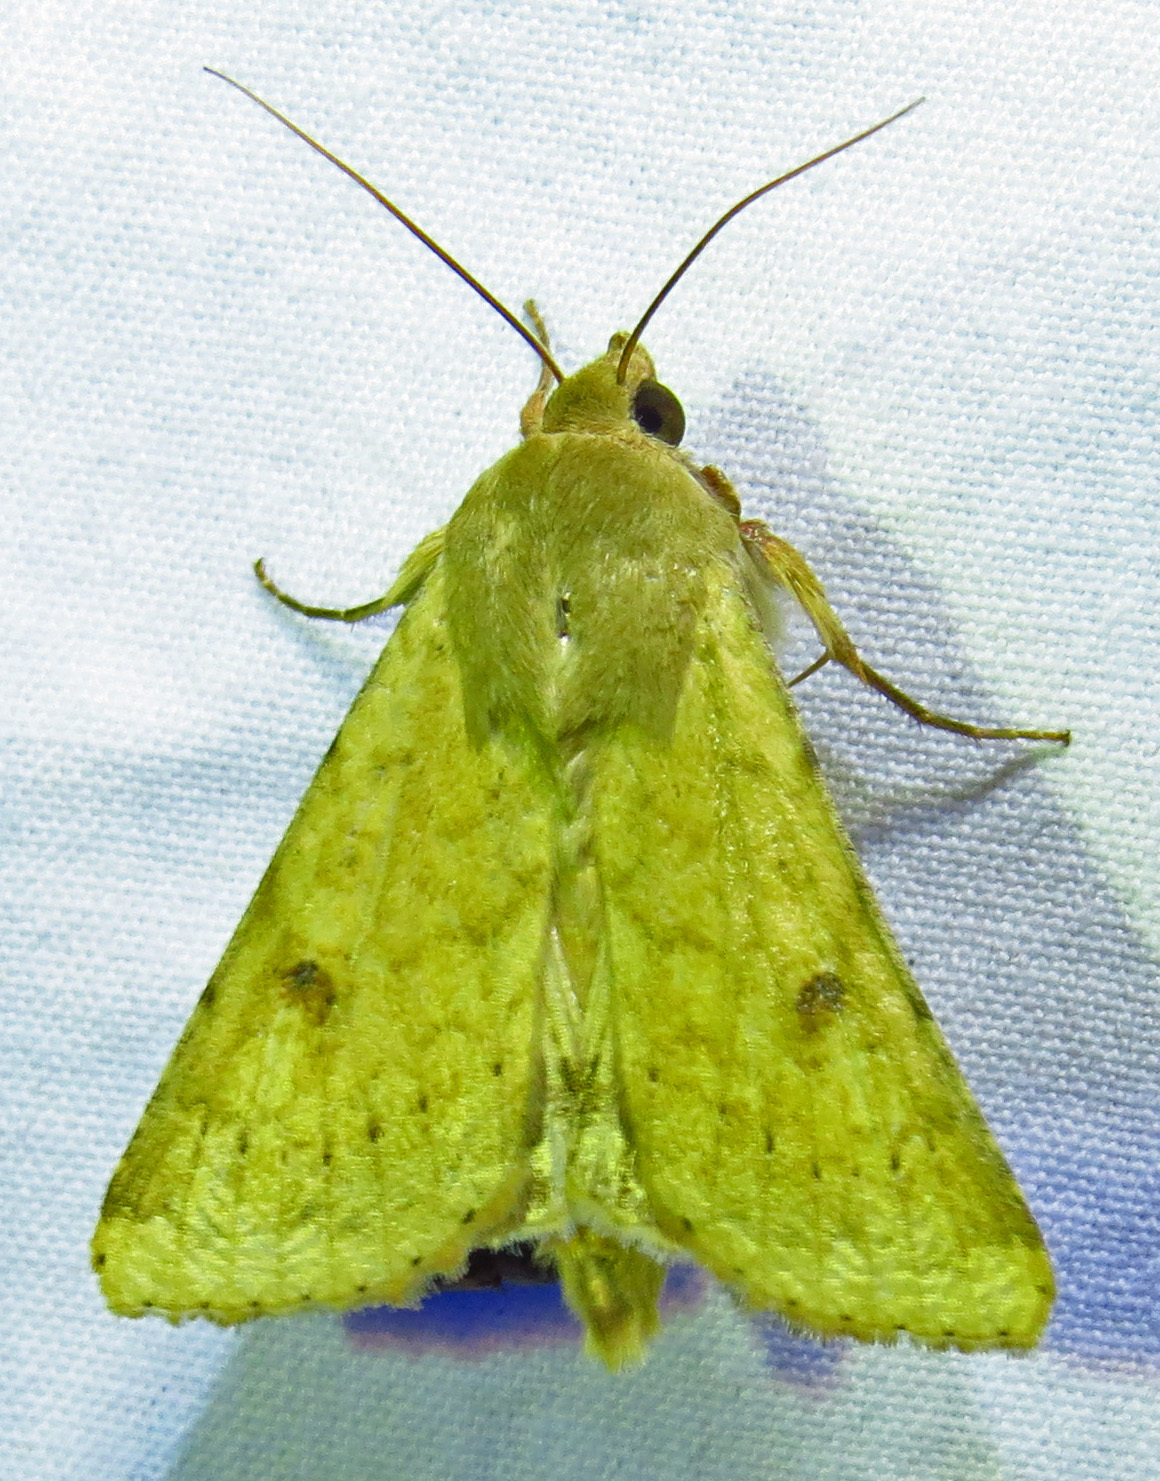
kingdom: Animalia
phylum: Arthropoda
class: Insecta
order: Lepidoptera
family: Noctuidae
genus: Helicoverpa
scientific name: Helicoverpa zea
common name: Bollworm
